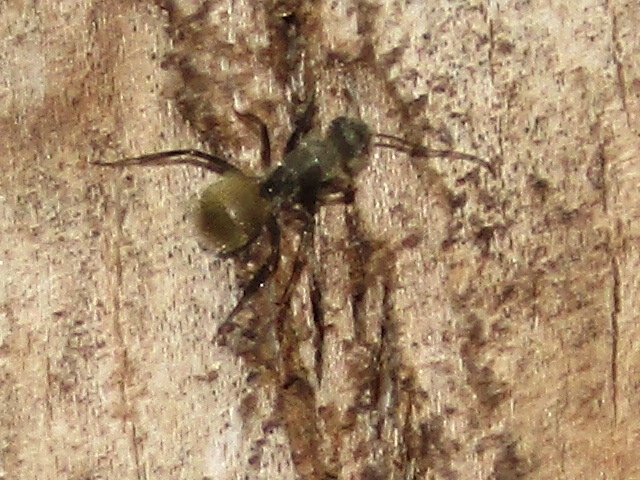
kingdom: Animalia
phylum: Arthropoda
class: Insecta
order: Hymenoptera
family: Formicidae
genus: Camponotus
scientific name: Camponotus arboreus
